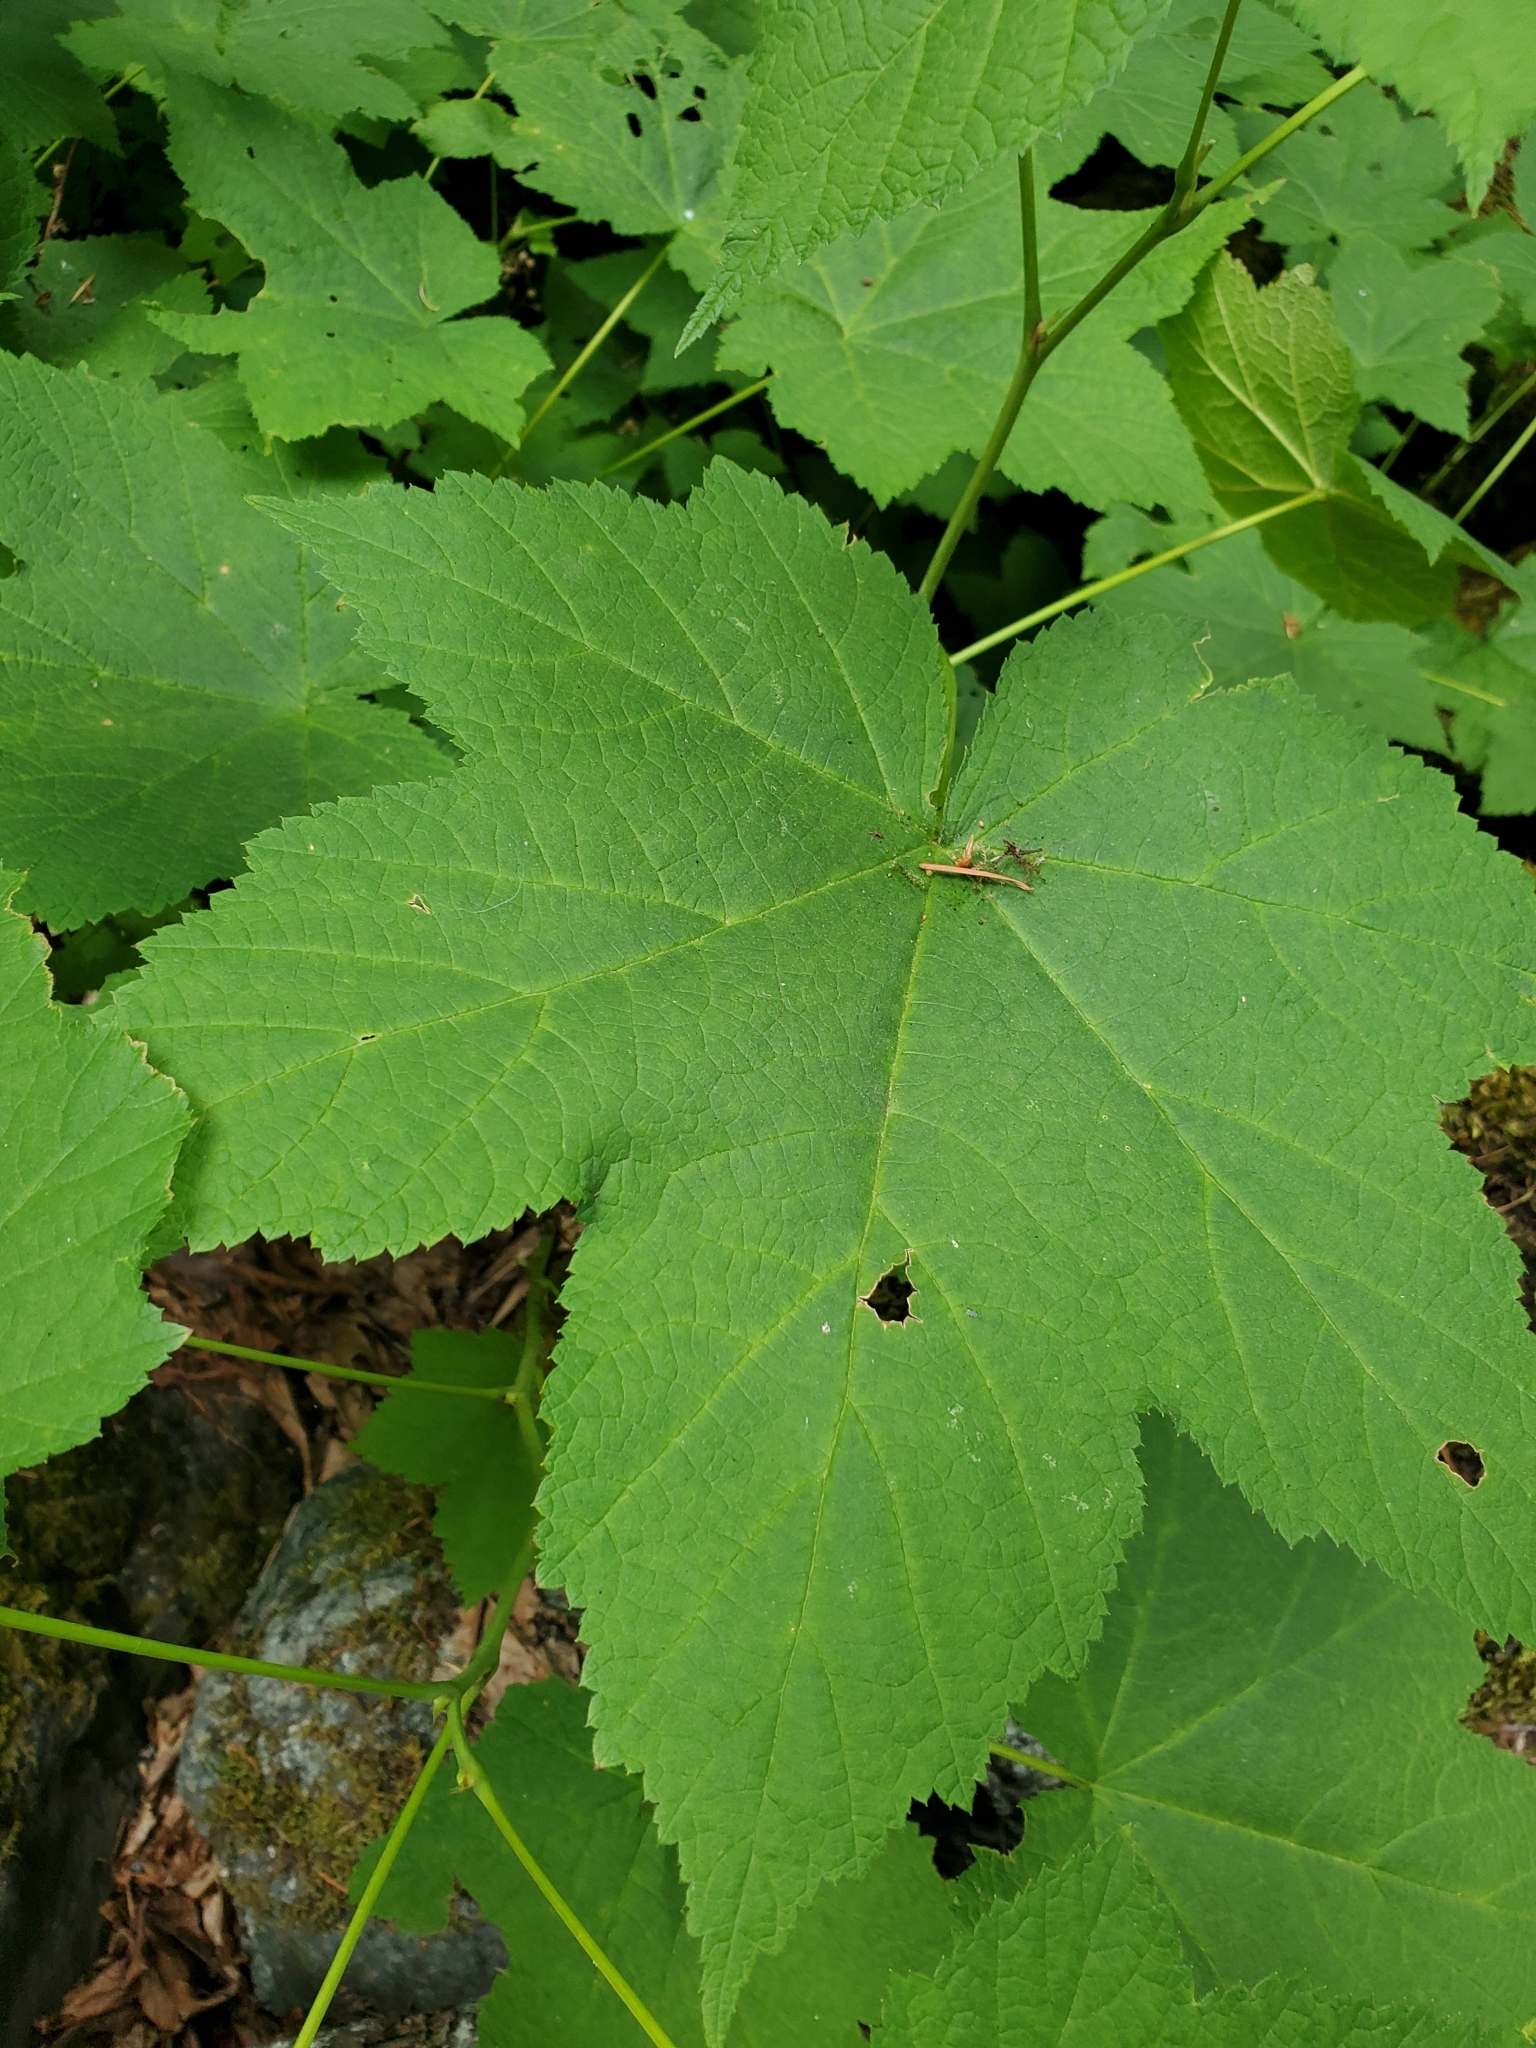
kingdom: Plantae
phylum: Tracheophyta
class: Magnoliopsida
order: Rosales
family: Rosaceae
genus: Rubus
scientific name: Rubus parviflorus
